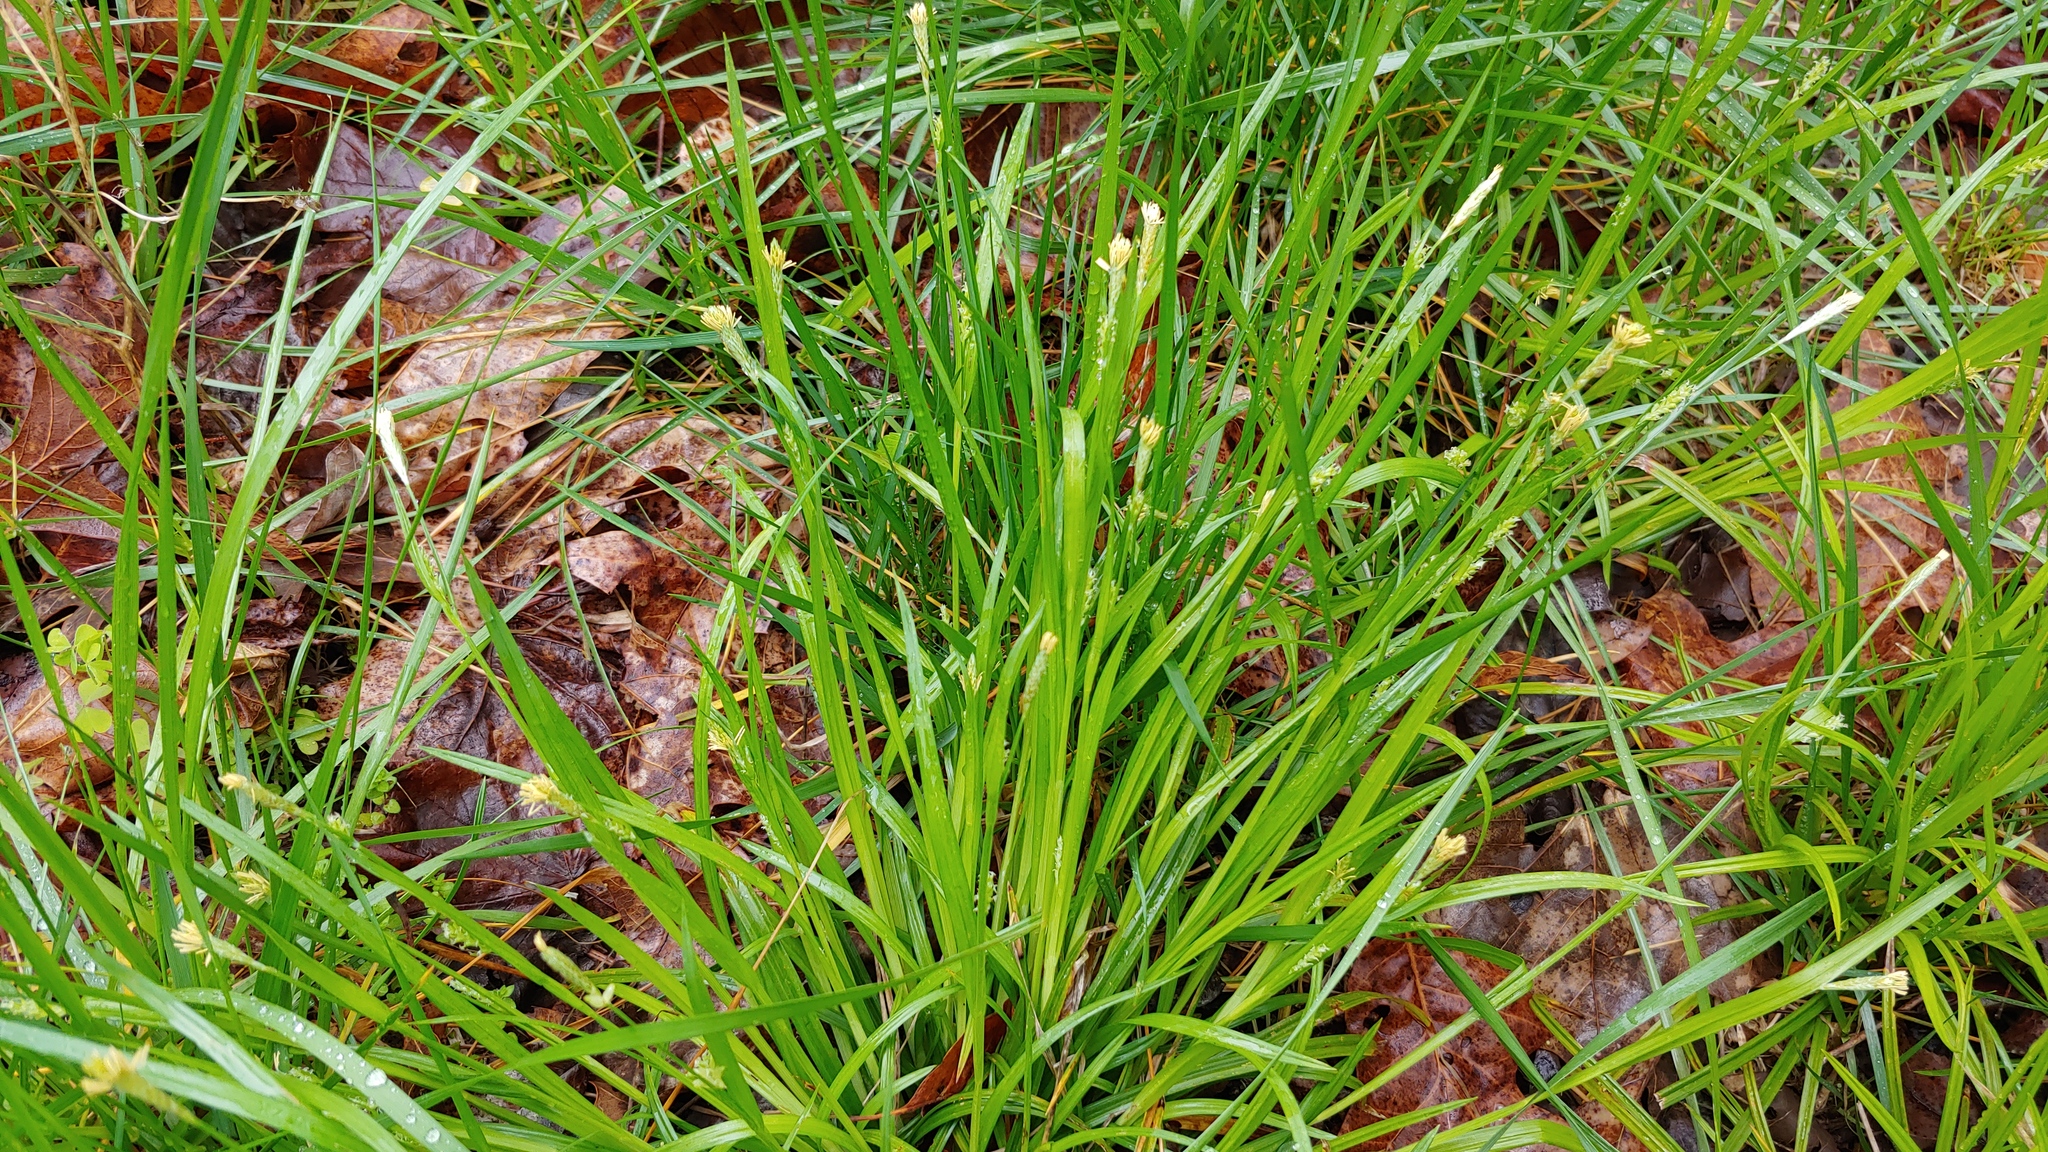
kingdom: Plantae
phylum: Tracheophyta
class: Liliopsida
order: Poales
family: Cyperaceae
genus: Carex
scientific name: Carex blanda
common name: Bland sedge
